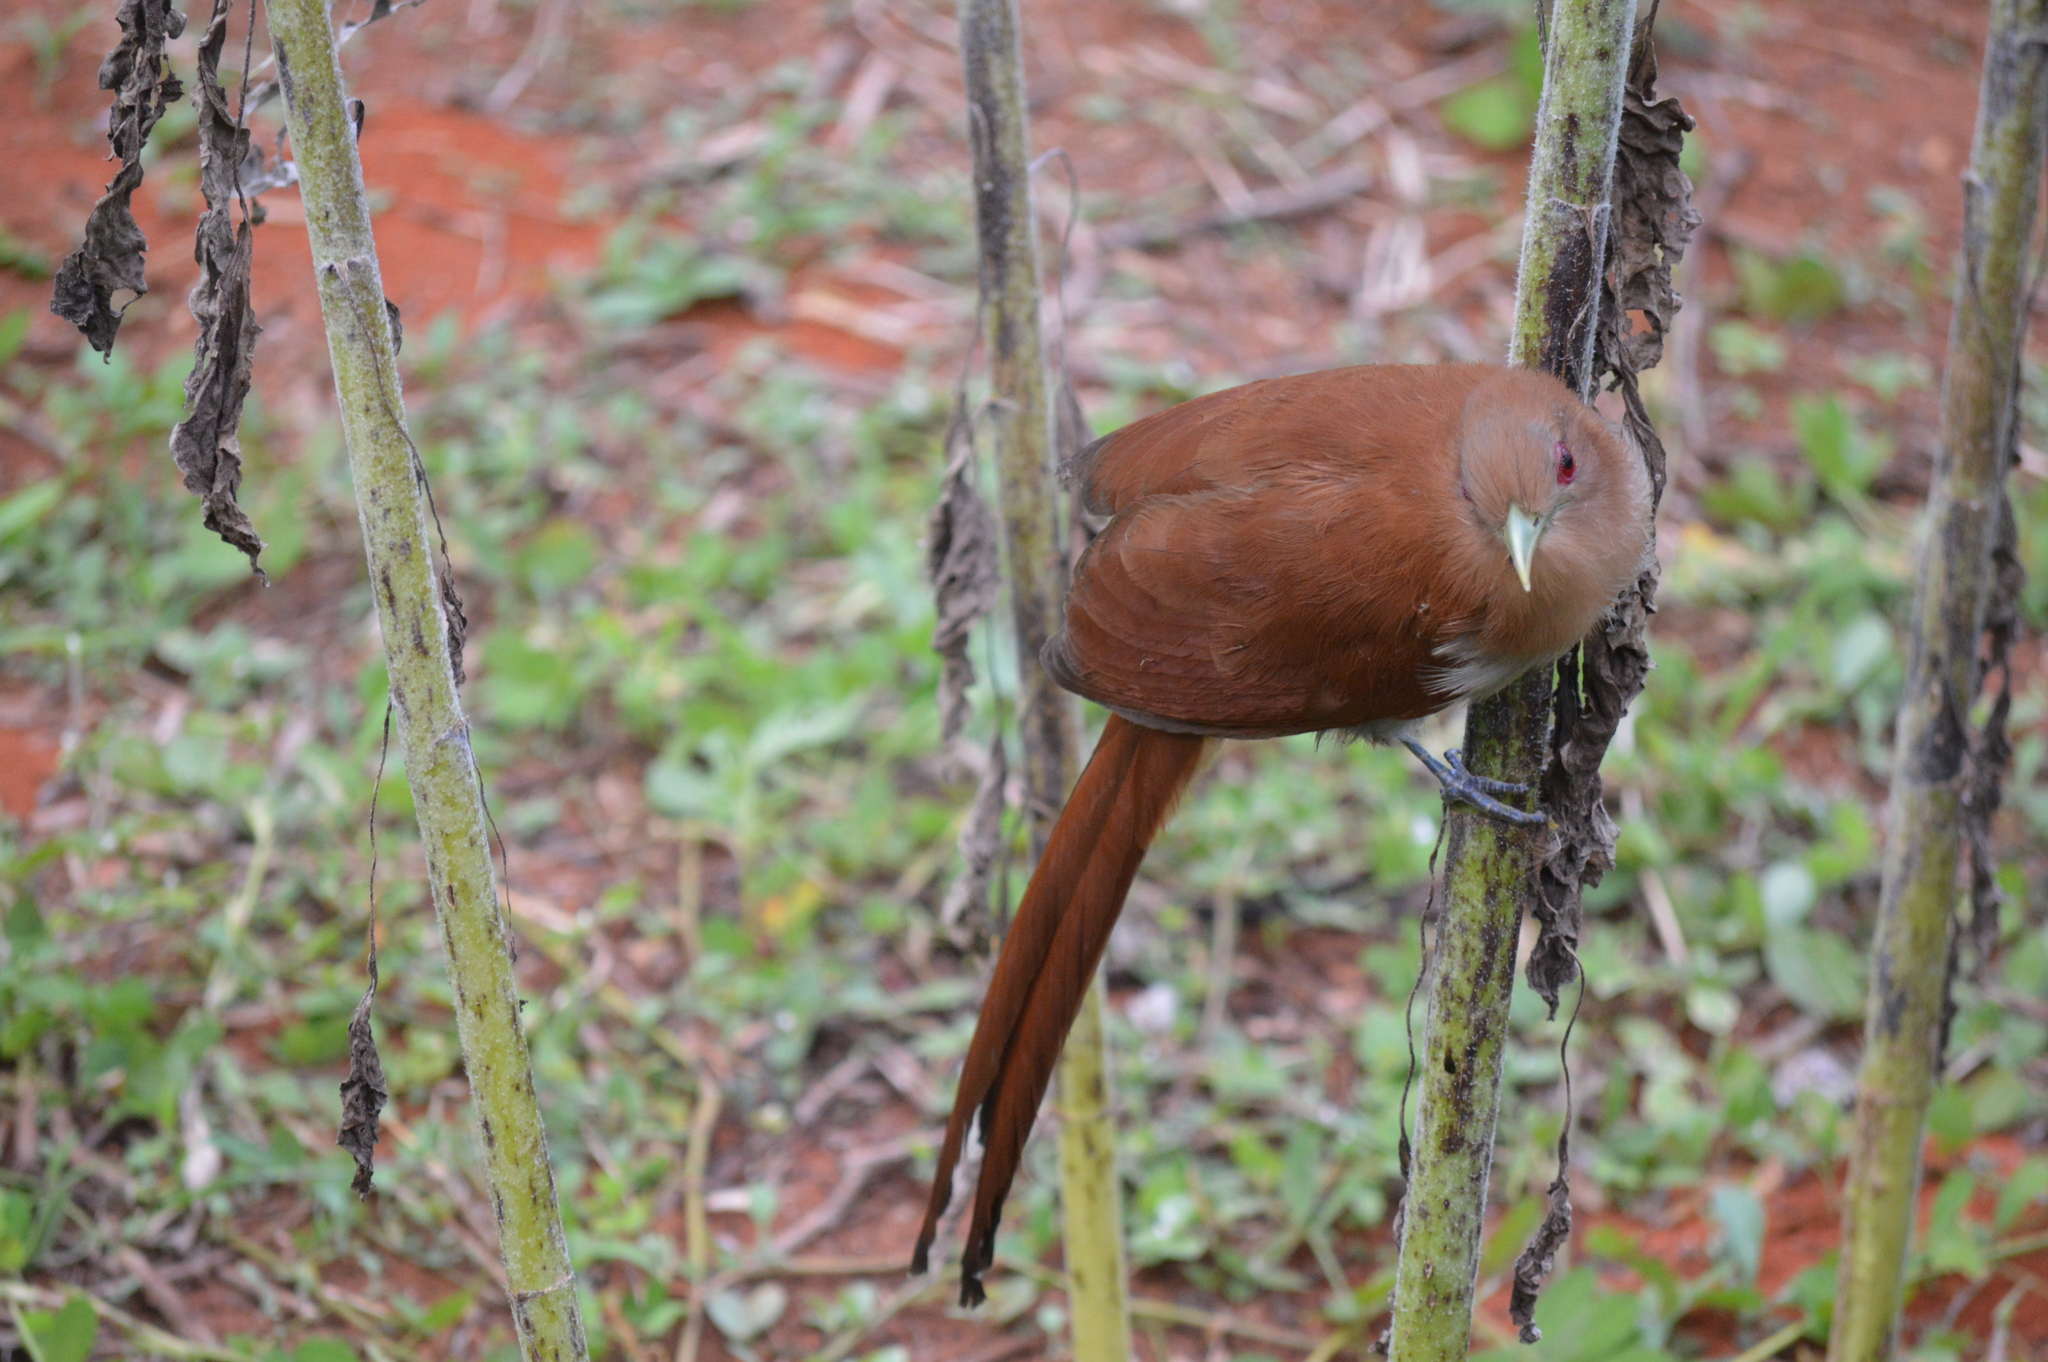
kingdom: Animalia
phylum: Chordata
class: Aves
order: Cuculiformes
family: Cuculidae
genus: Piaya
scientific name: Piaya cayana
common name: Squirrel cuckoo
